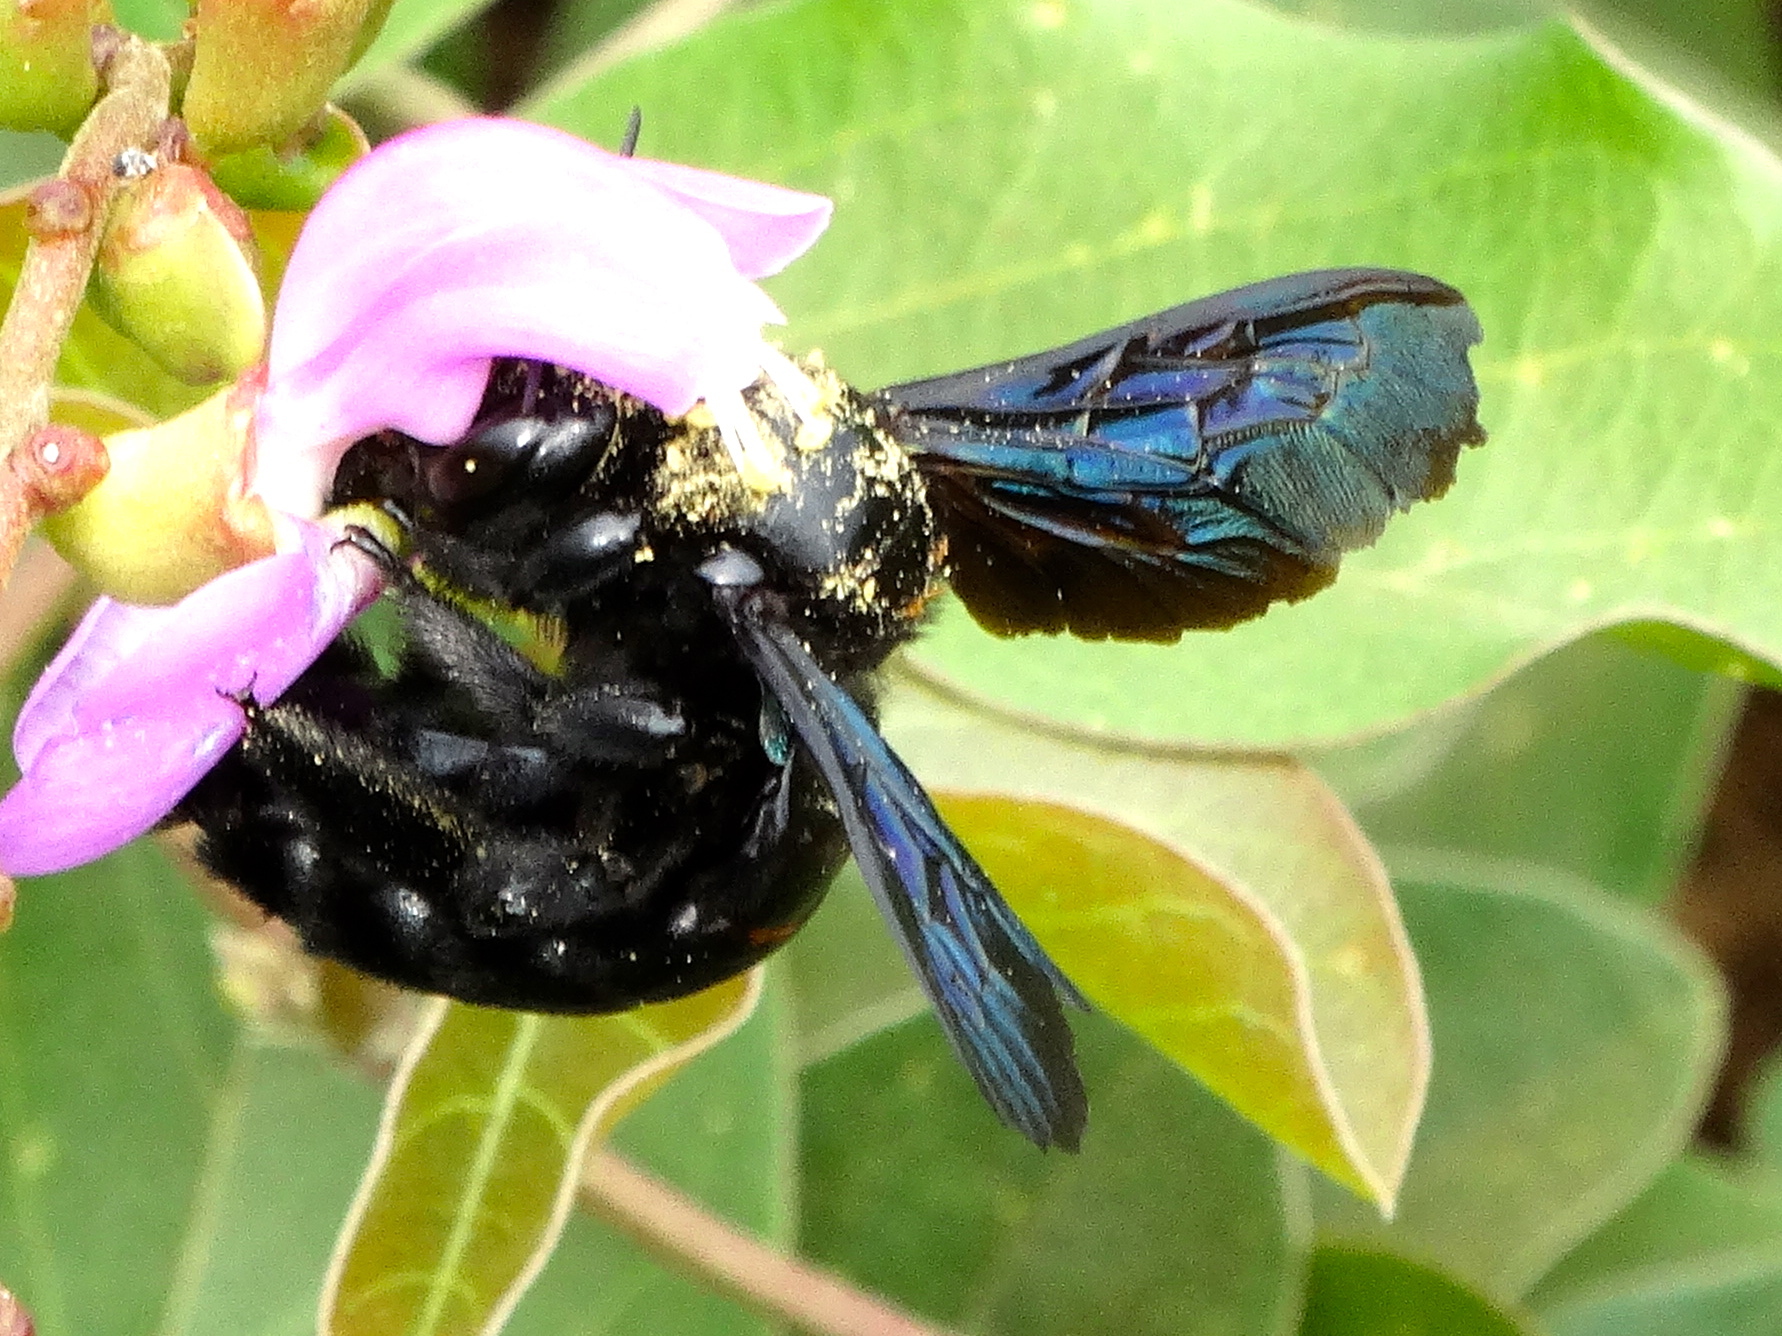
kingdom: Animalia
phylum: Arthropoda
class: Insecta
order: Hymenoptera
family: Apidae
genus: Xylocopa
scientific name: Xylocopa fimbriata
